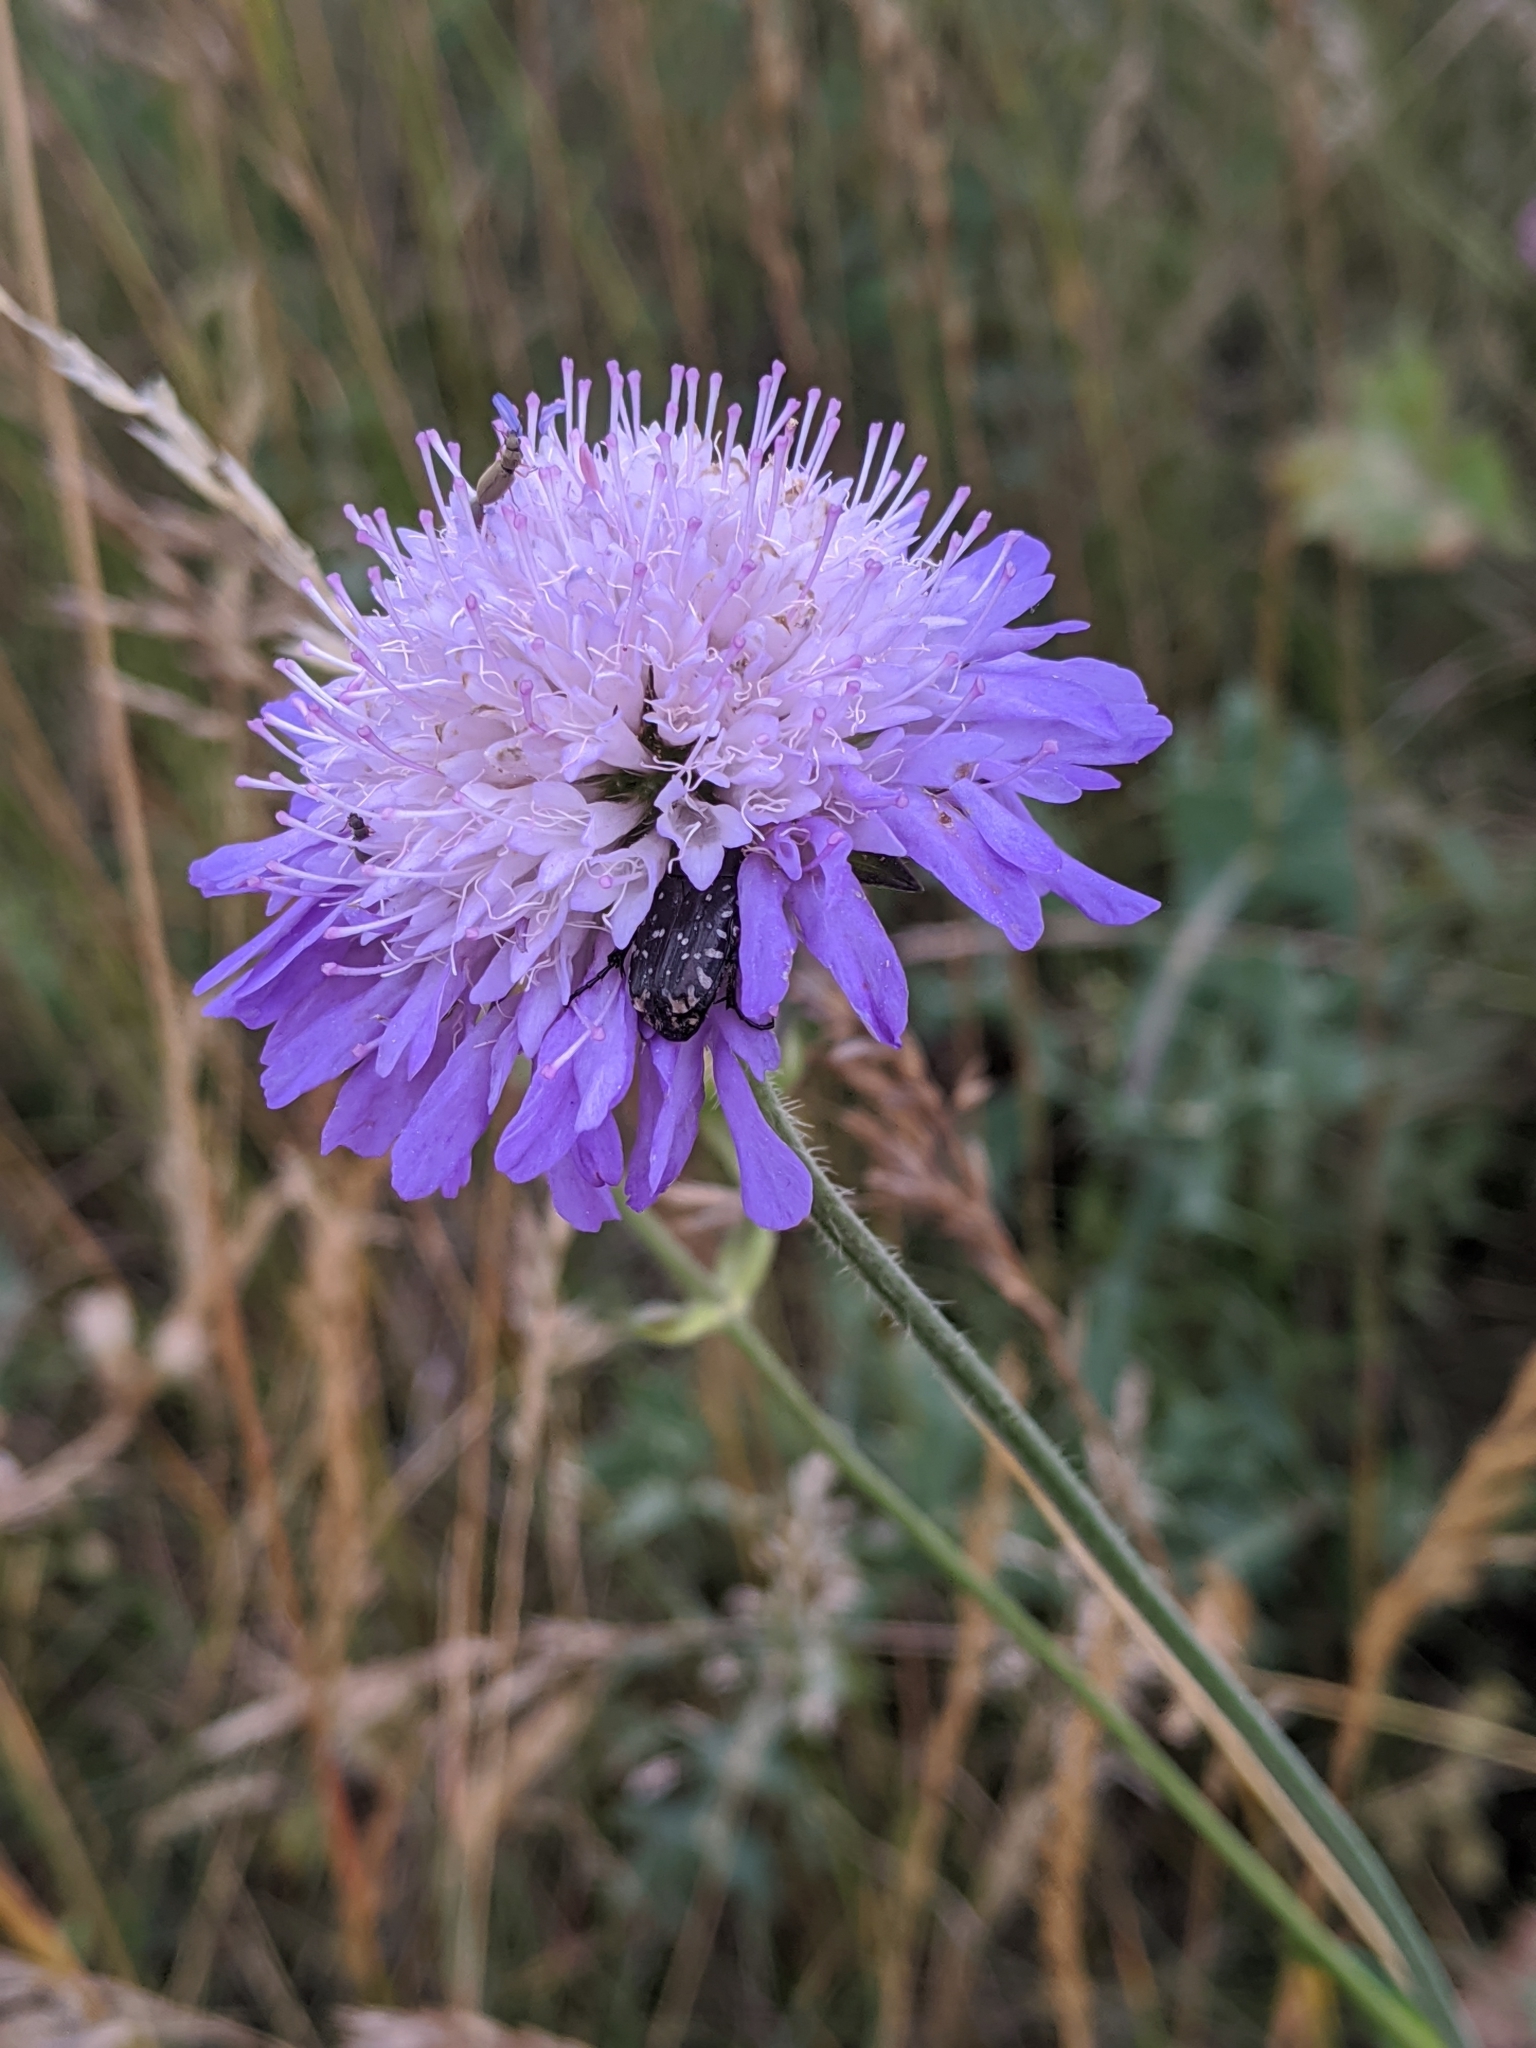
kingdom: Animalia
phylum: Arthropoda
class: Insecta
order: Coleoptera
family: Scarabaeidae
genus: Oxythyrea
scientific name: Oxythyrea funesta
